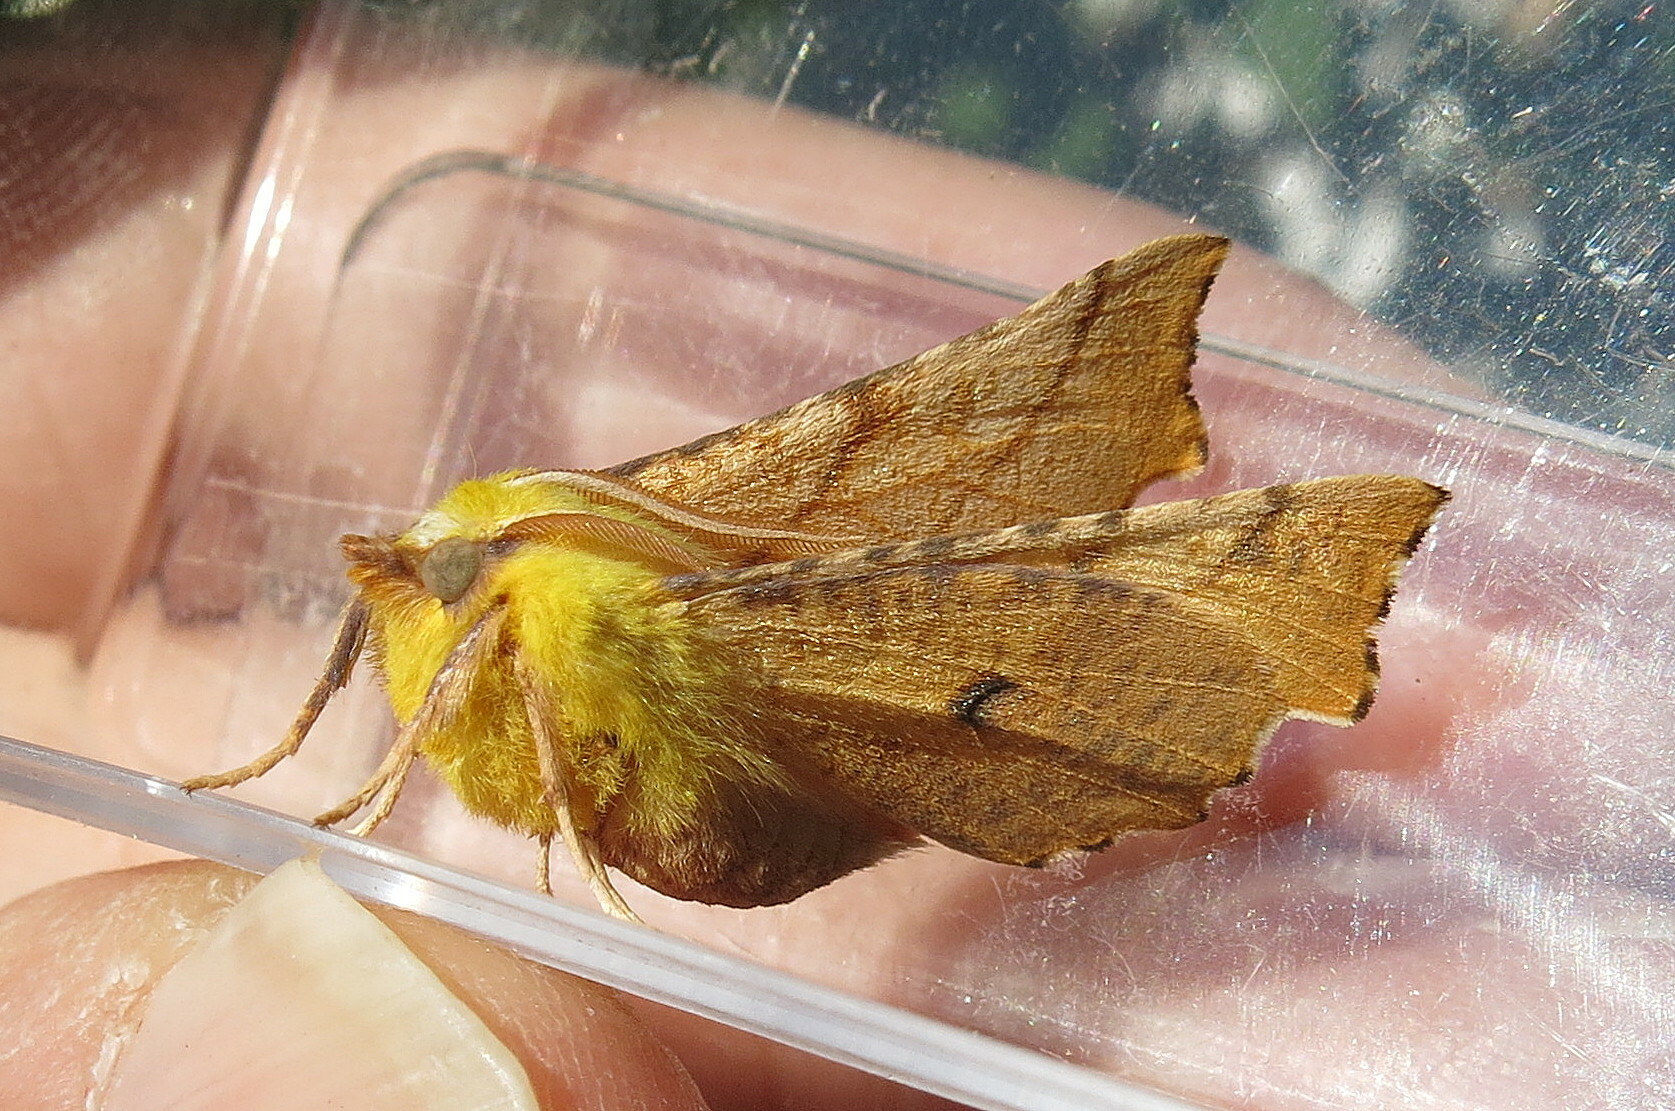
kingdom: Animalia
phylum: Arthropoda
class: Insecta
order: Lepidoptera
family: Geometridae
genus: Ennomos
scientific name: Ennomos alniaria
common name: Canary-shouldered thorn
